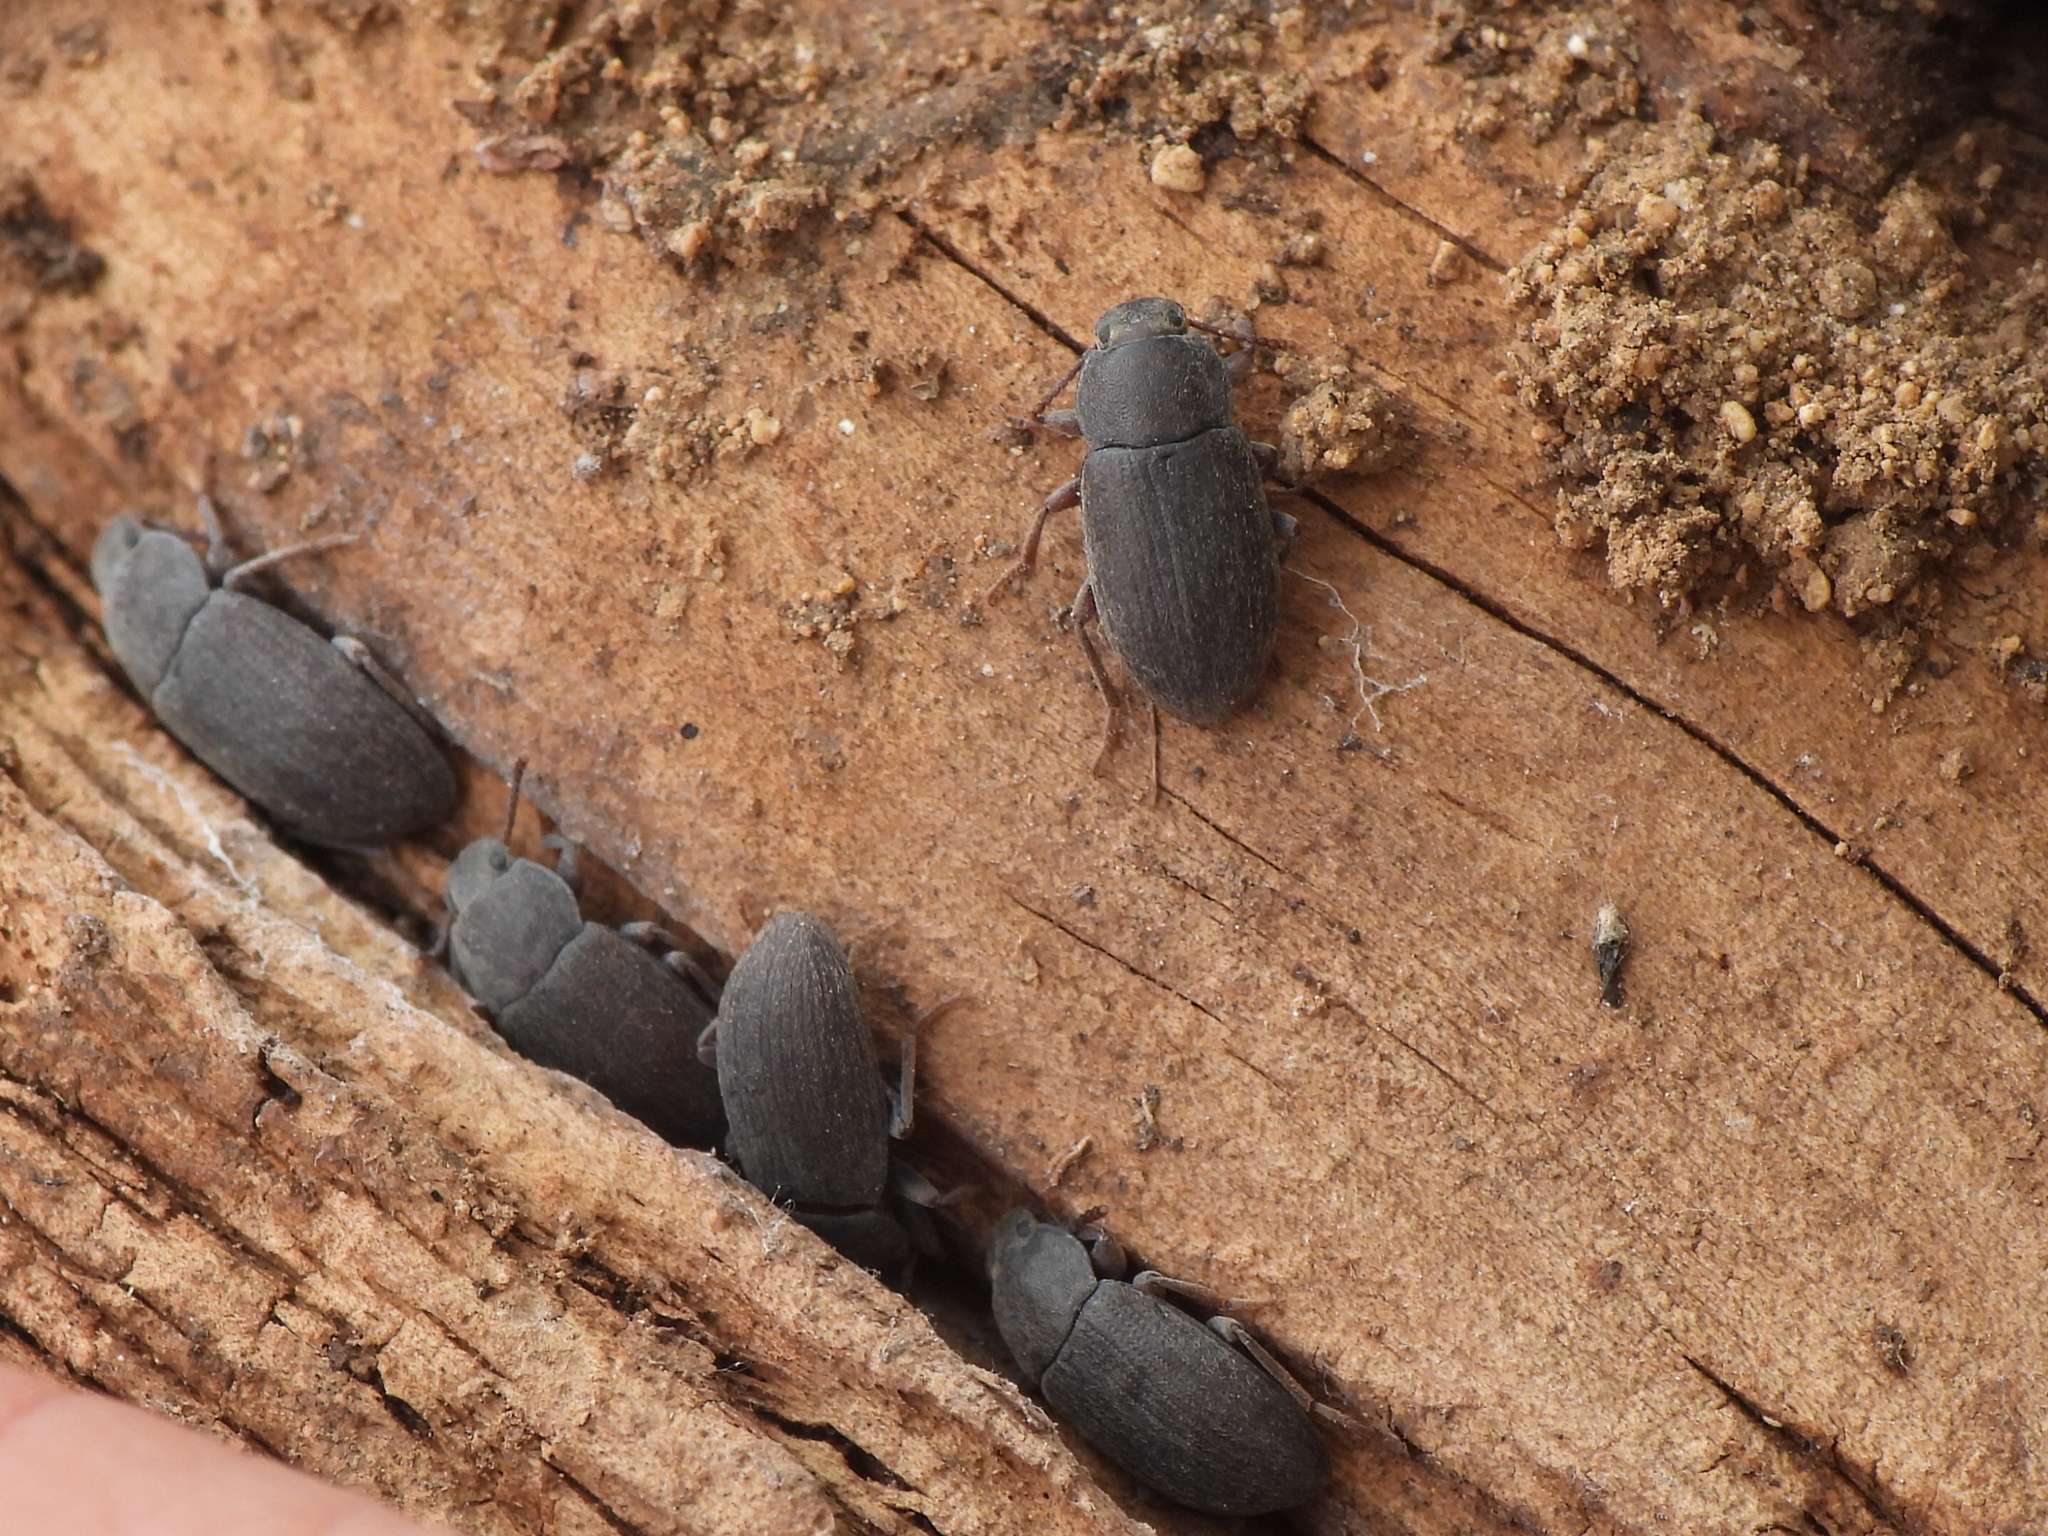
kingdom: Animalia
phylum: Arthropoda
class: Insecta
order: Coleoptera
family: Tenebrionidae
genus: Blapstinus
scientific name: Blapstinus fortis
